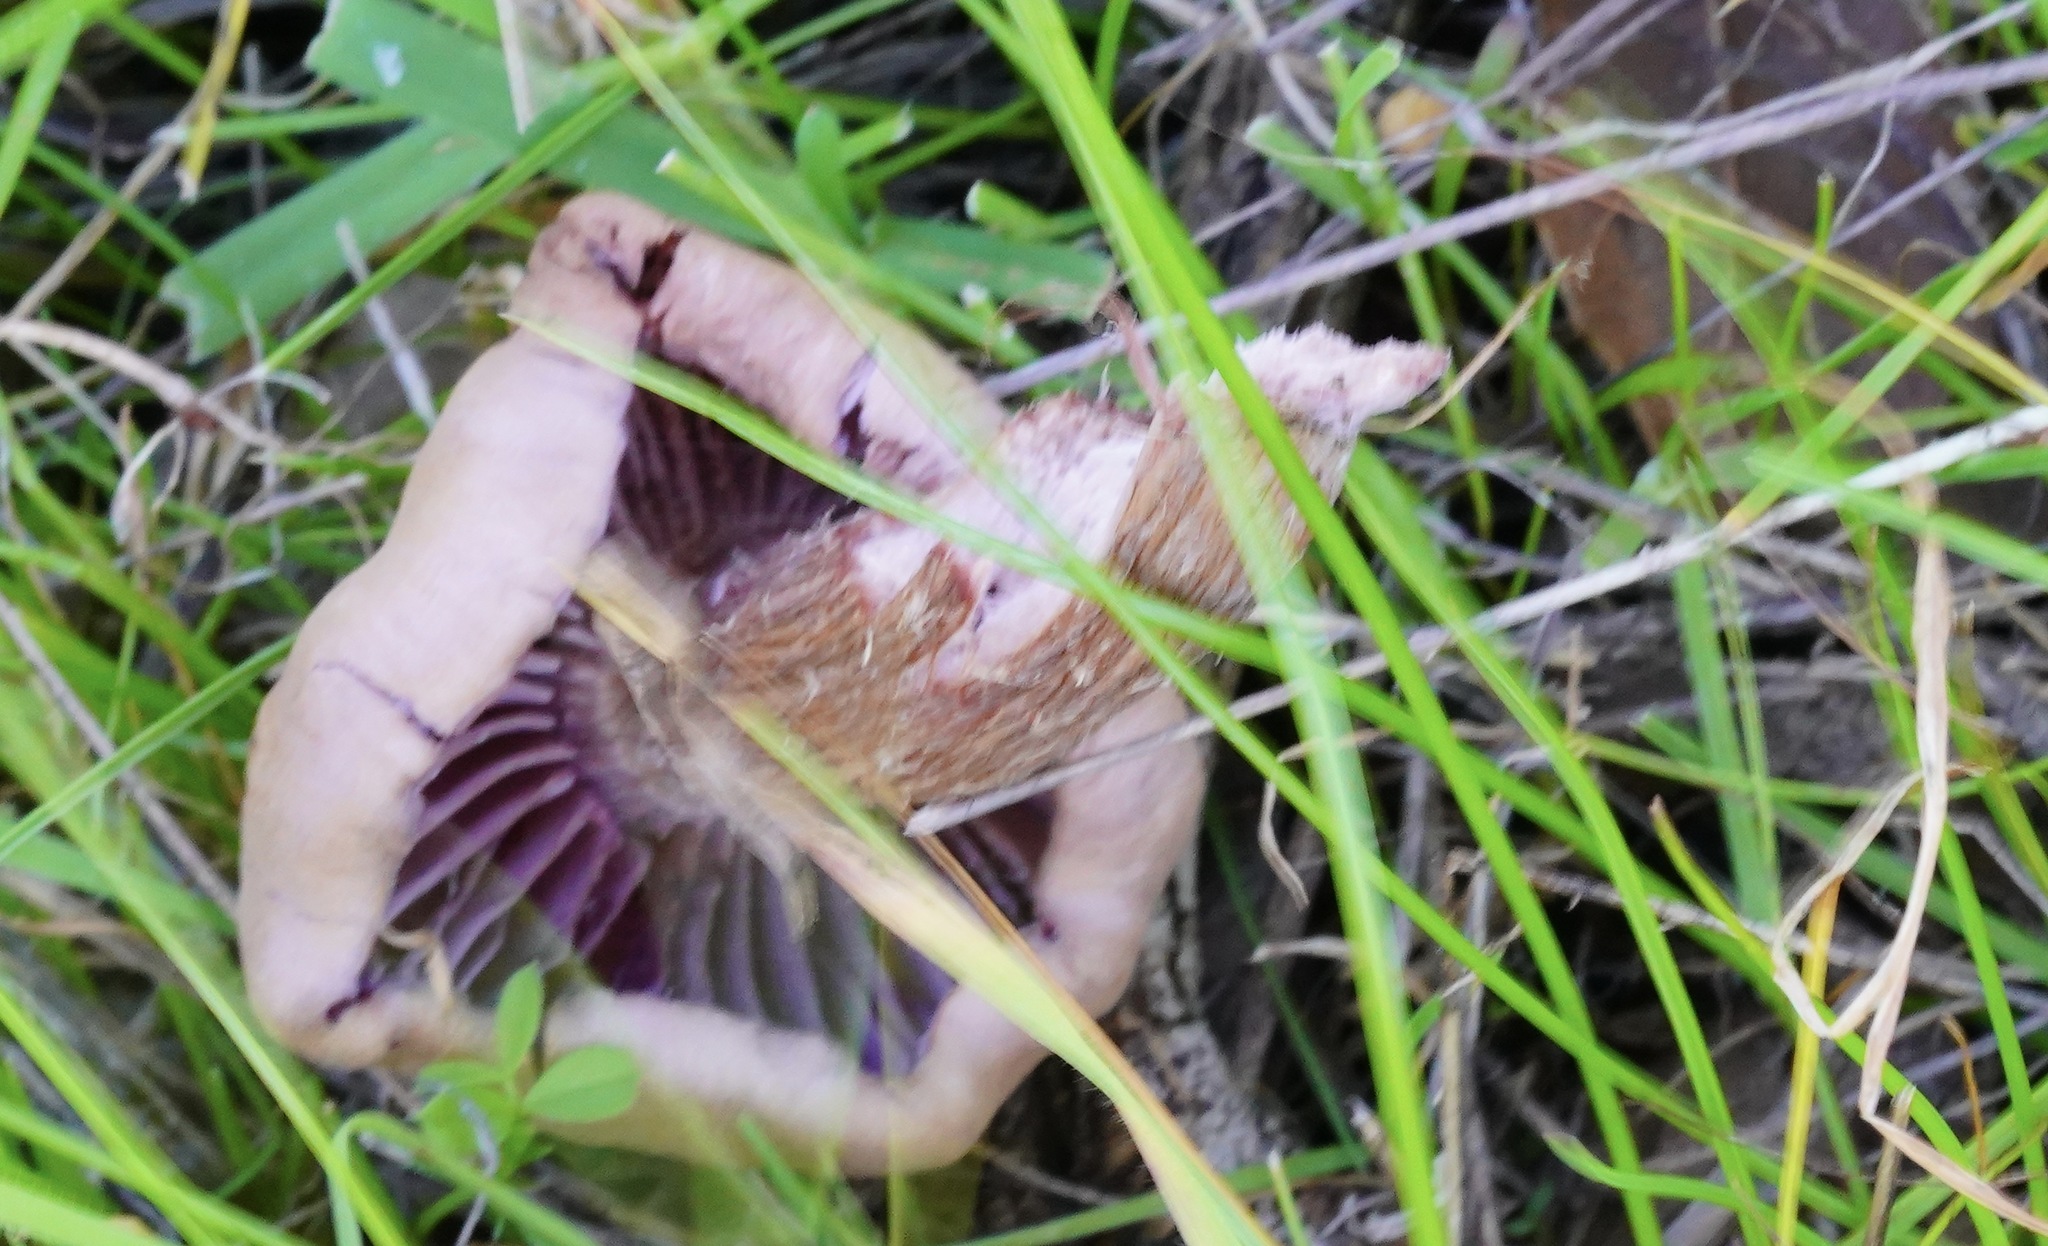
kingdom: Fungi
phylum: Basidiomycota
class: Agaricomycetes
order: Agaricales
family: Hydnangiaceae
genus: Laccaria
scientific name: Laccaria amethysteo-occidentalis
